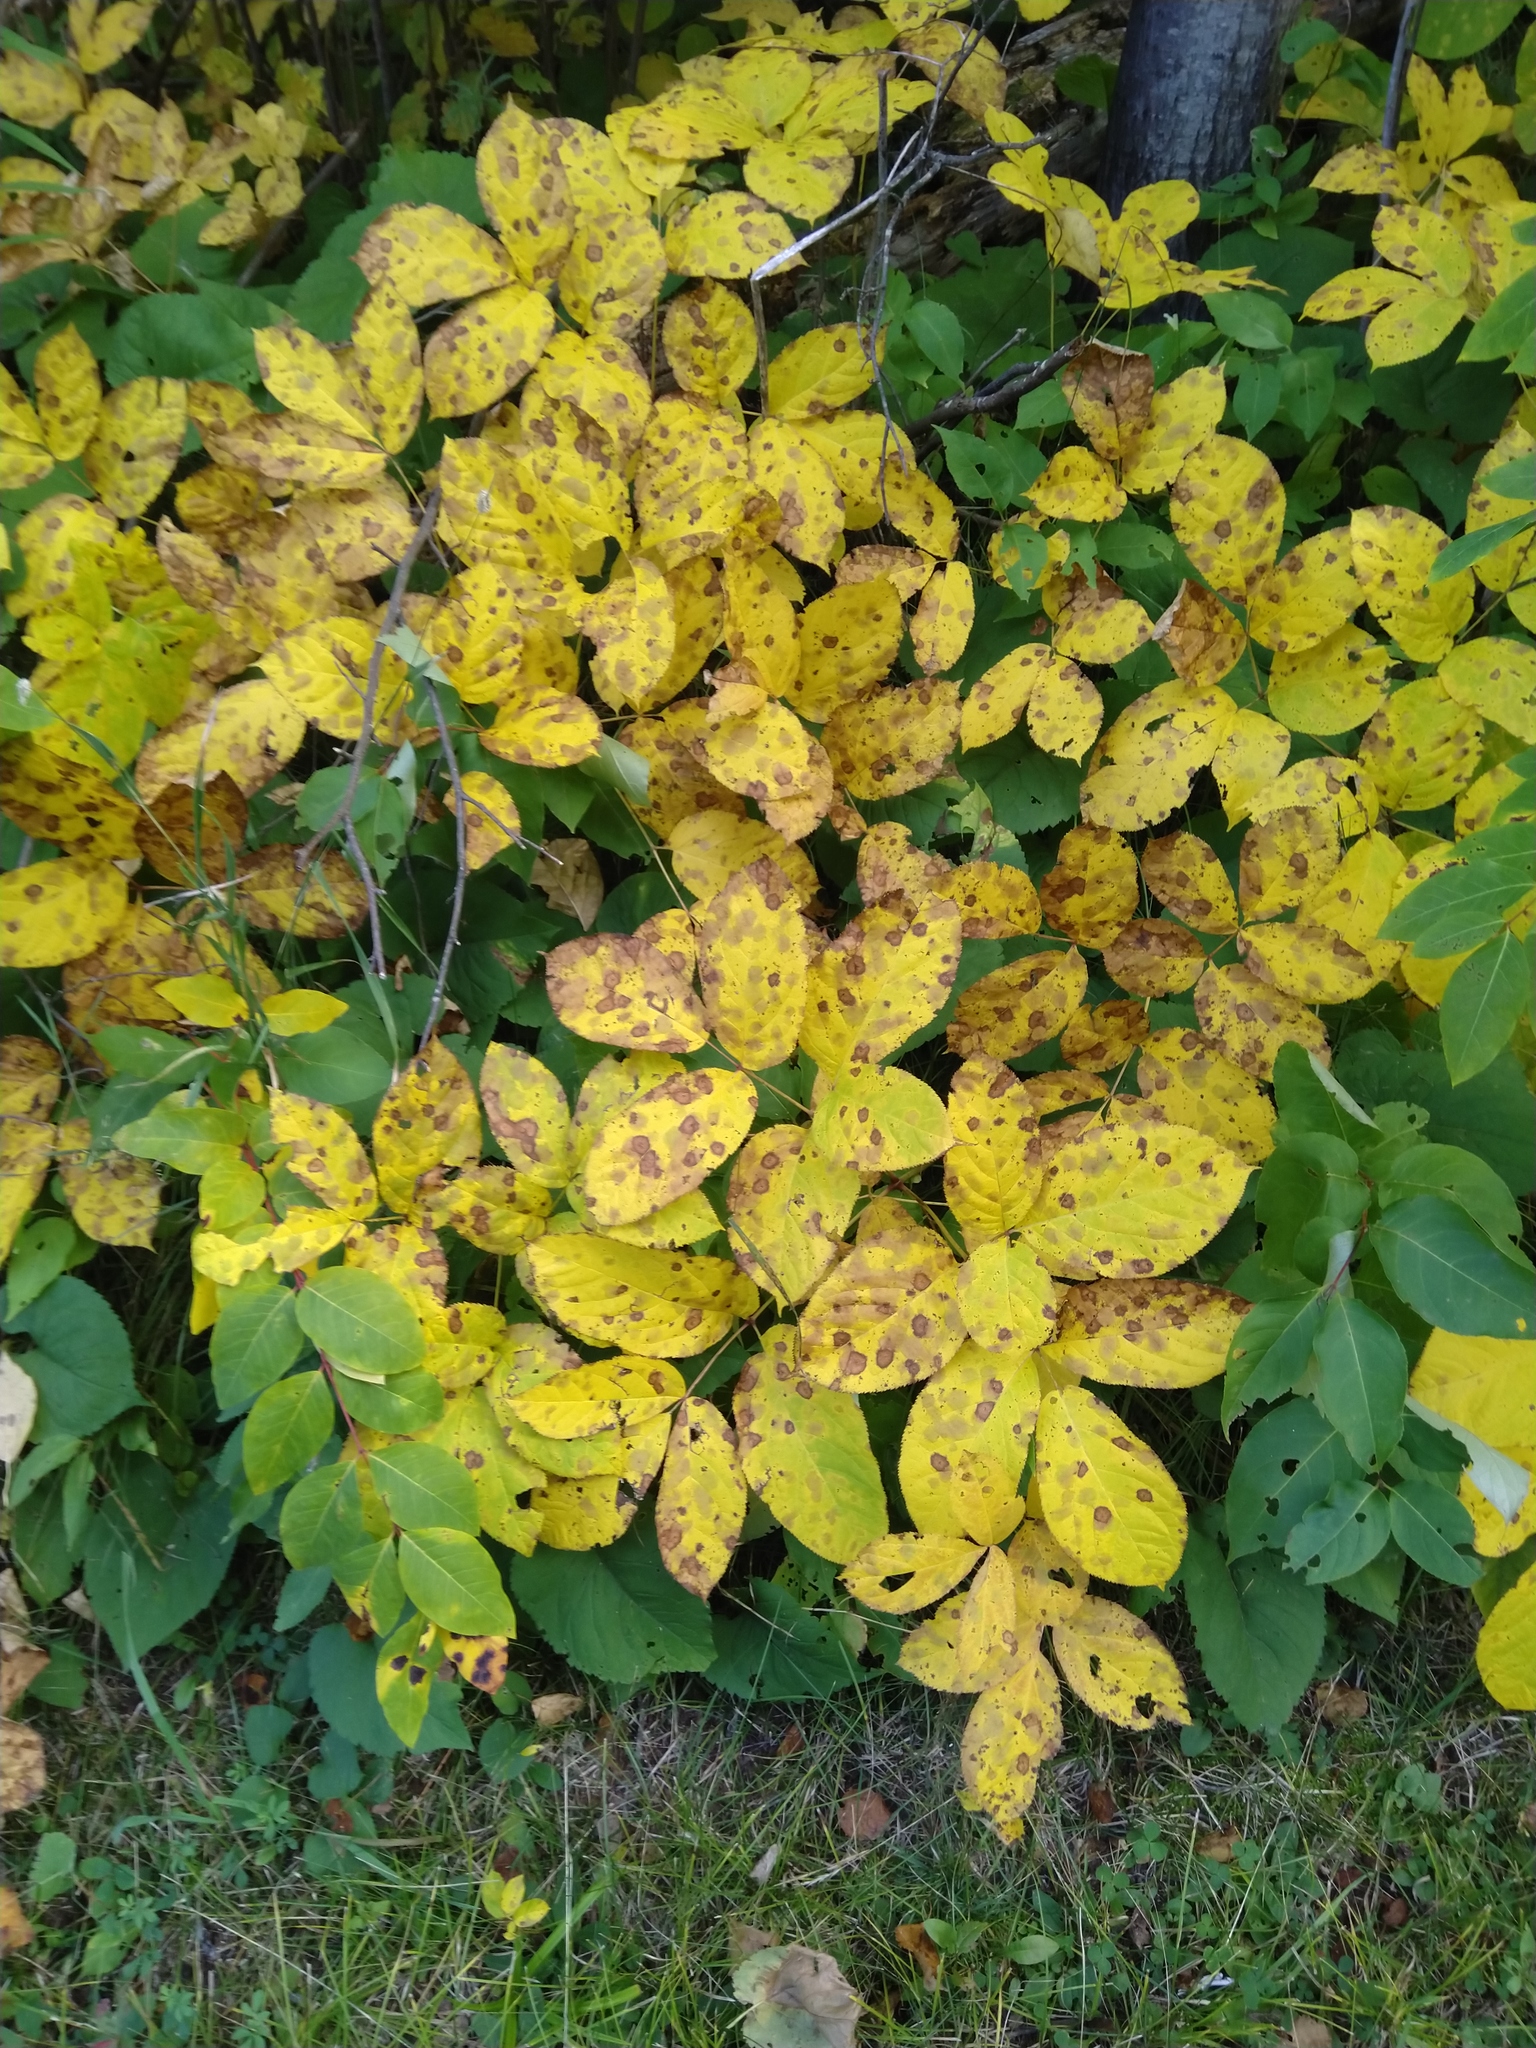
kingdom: Plantae
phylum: Tracheophyta
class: Magnoliopsida
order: Apiales
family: Araliaceae
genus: Aralia
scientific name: Aralia nudicaulis
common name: Wild sarsaparilla
